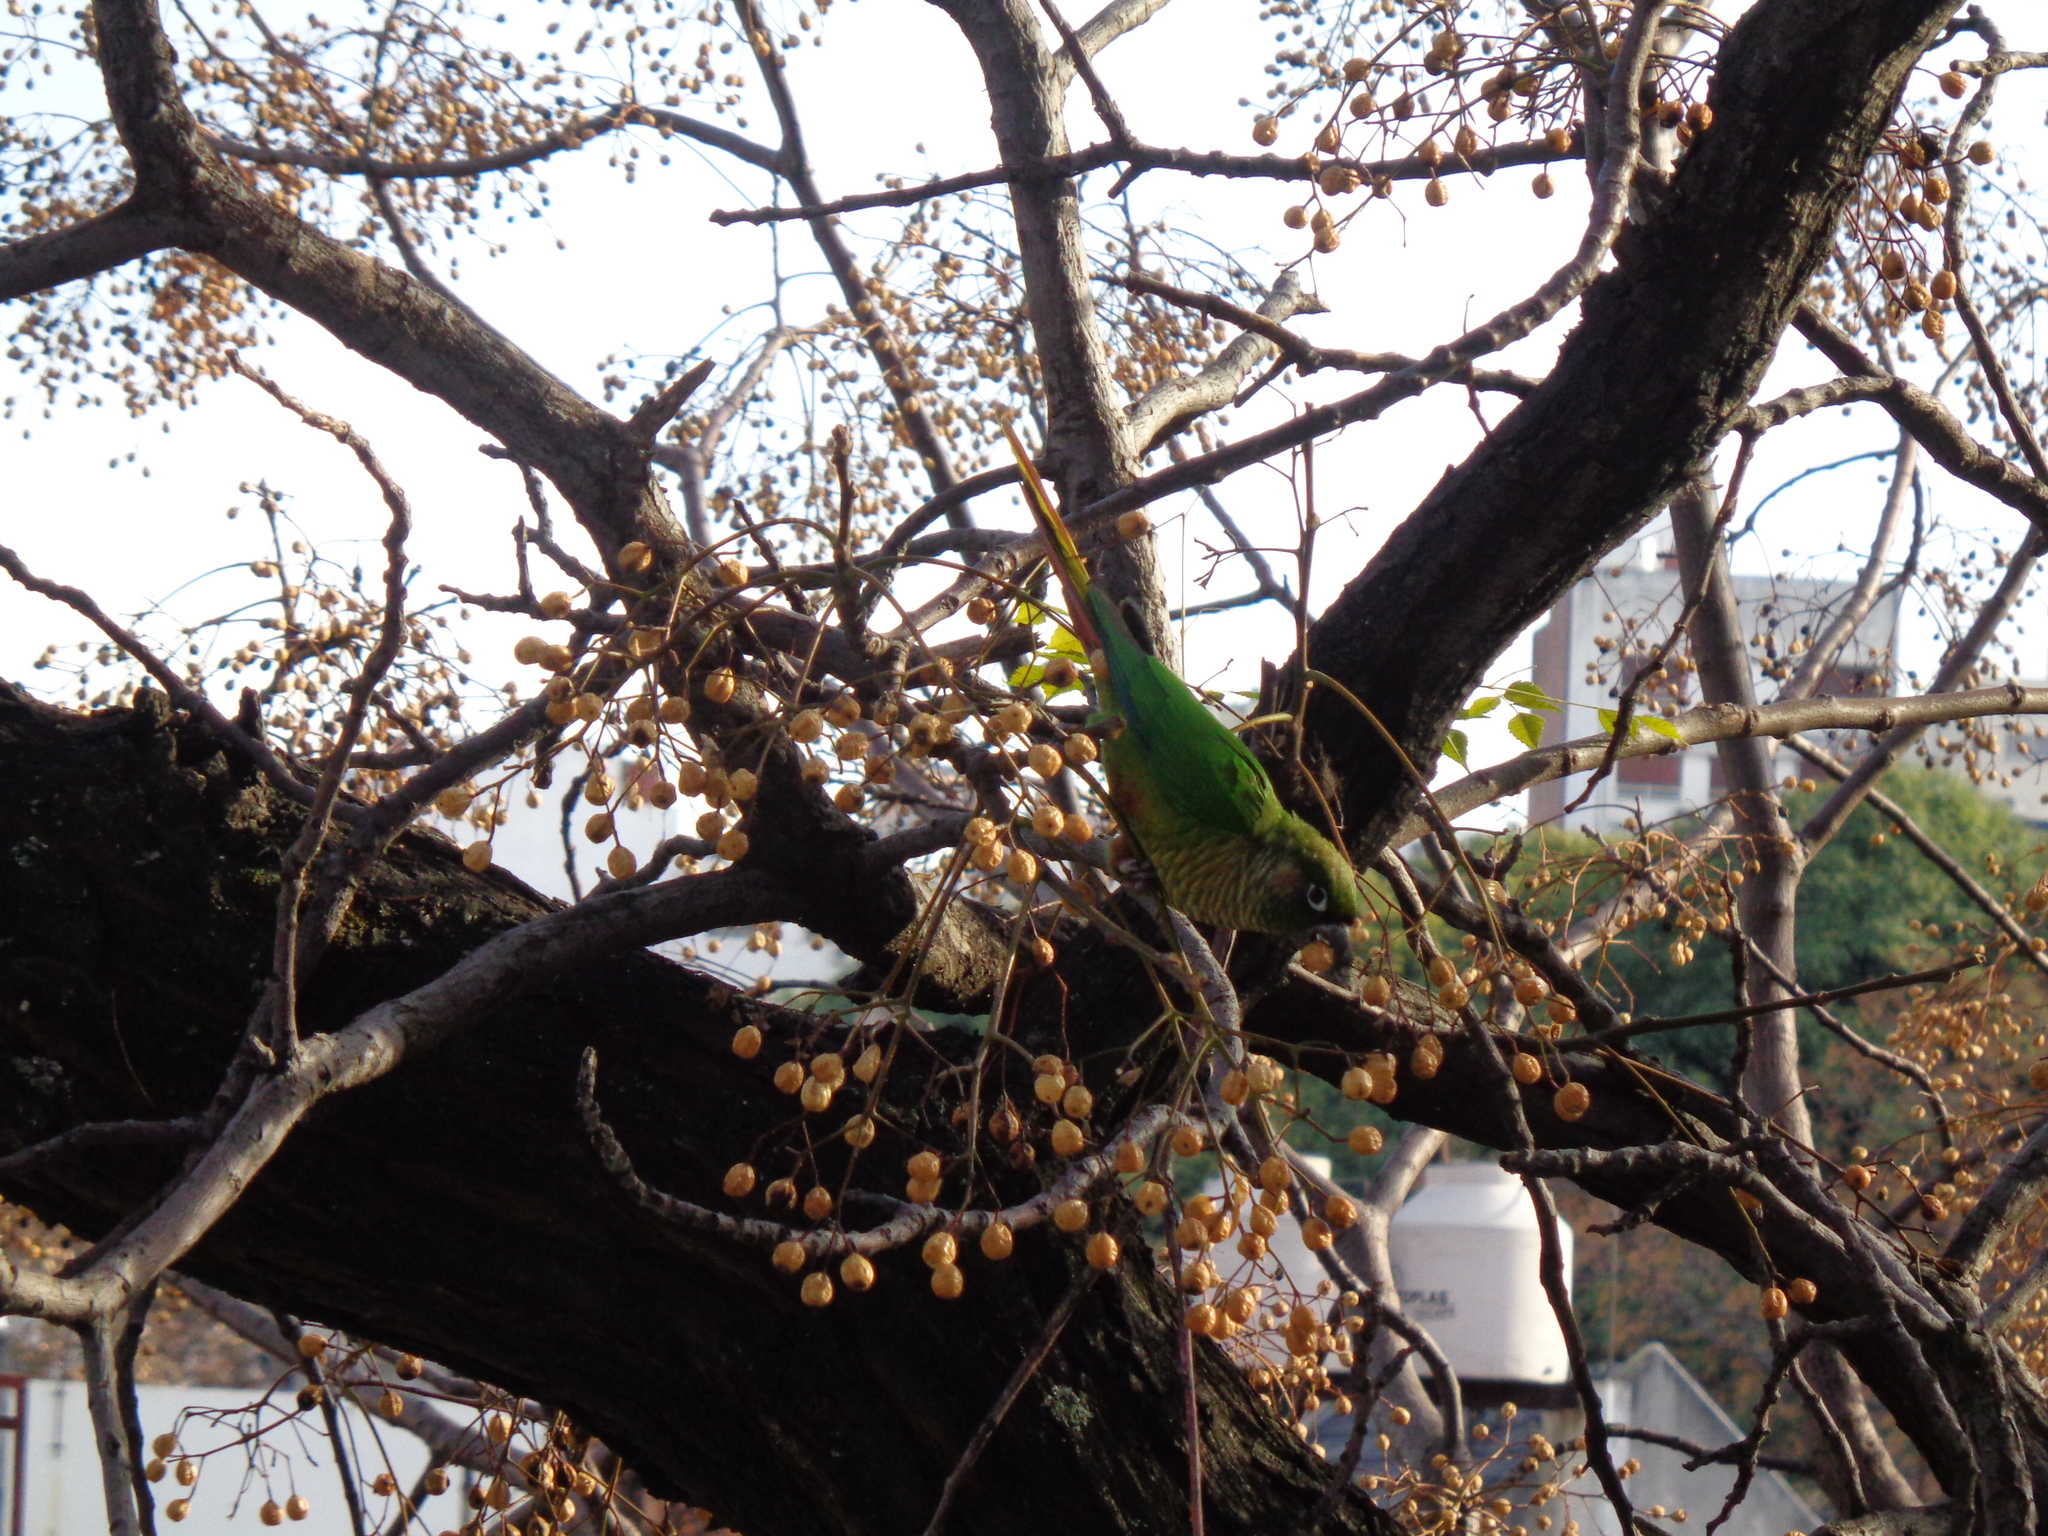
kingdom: Animalia
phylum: Chordata
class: Aves
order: Psittaciformes
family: Psittacidae
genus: Pyrrhura
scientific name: Pyrrhura frontalis
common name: Maroon-bellied parakeet
